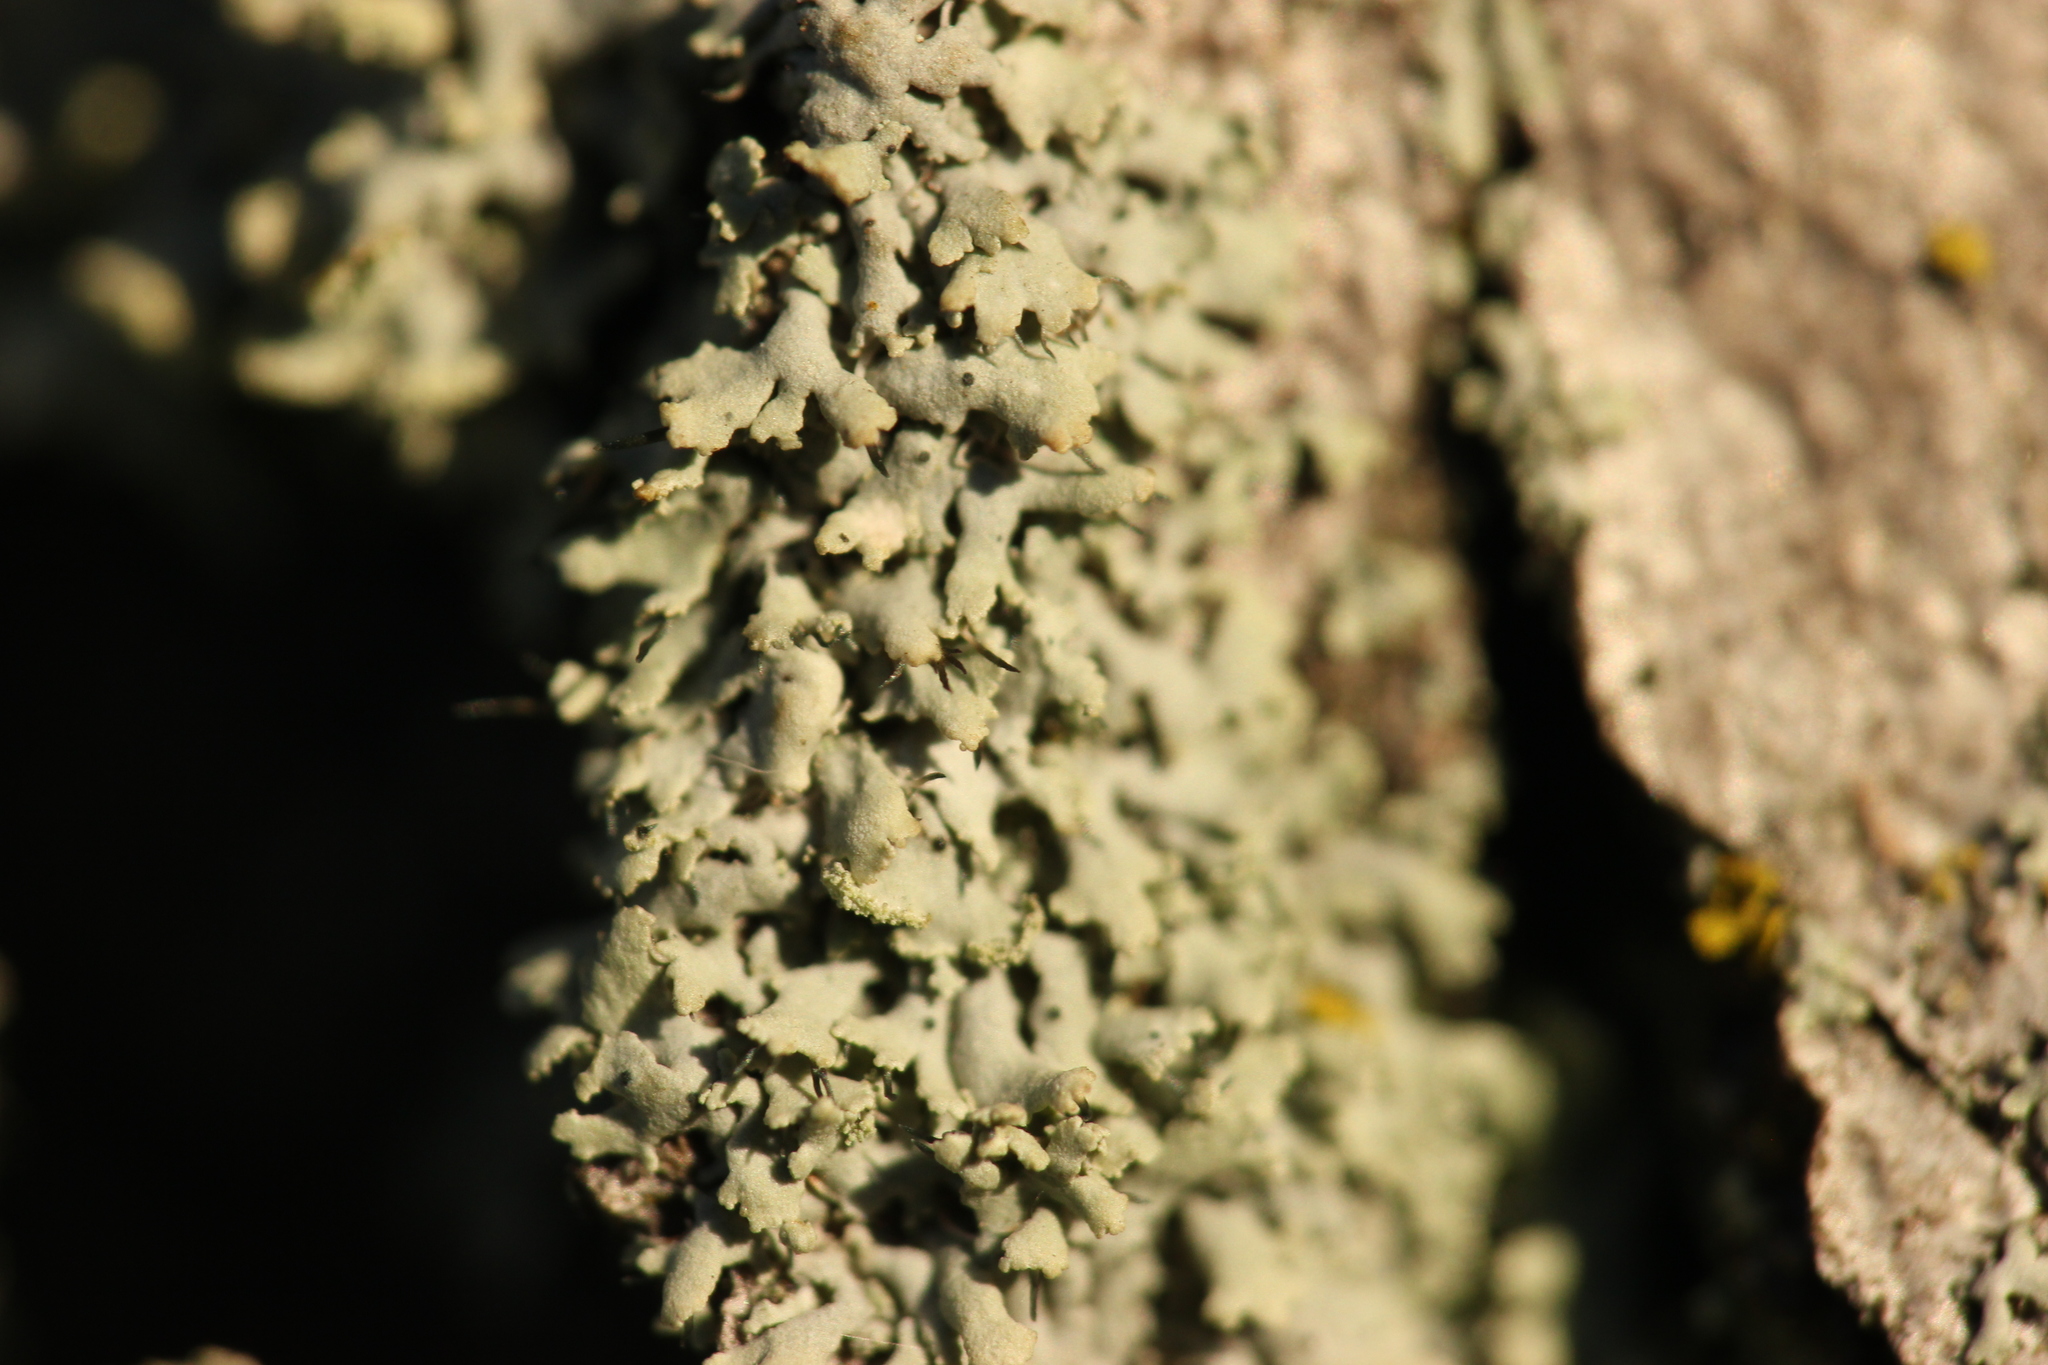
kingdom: Fungi
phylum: Ascomycota
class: Lecanoromycetes
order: Caliciales
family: Physciaceae
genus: Physcia
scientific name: Physcia adscendens
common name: Hooded rosette lichen
